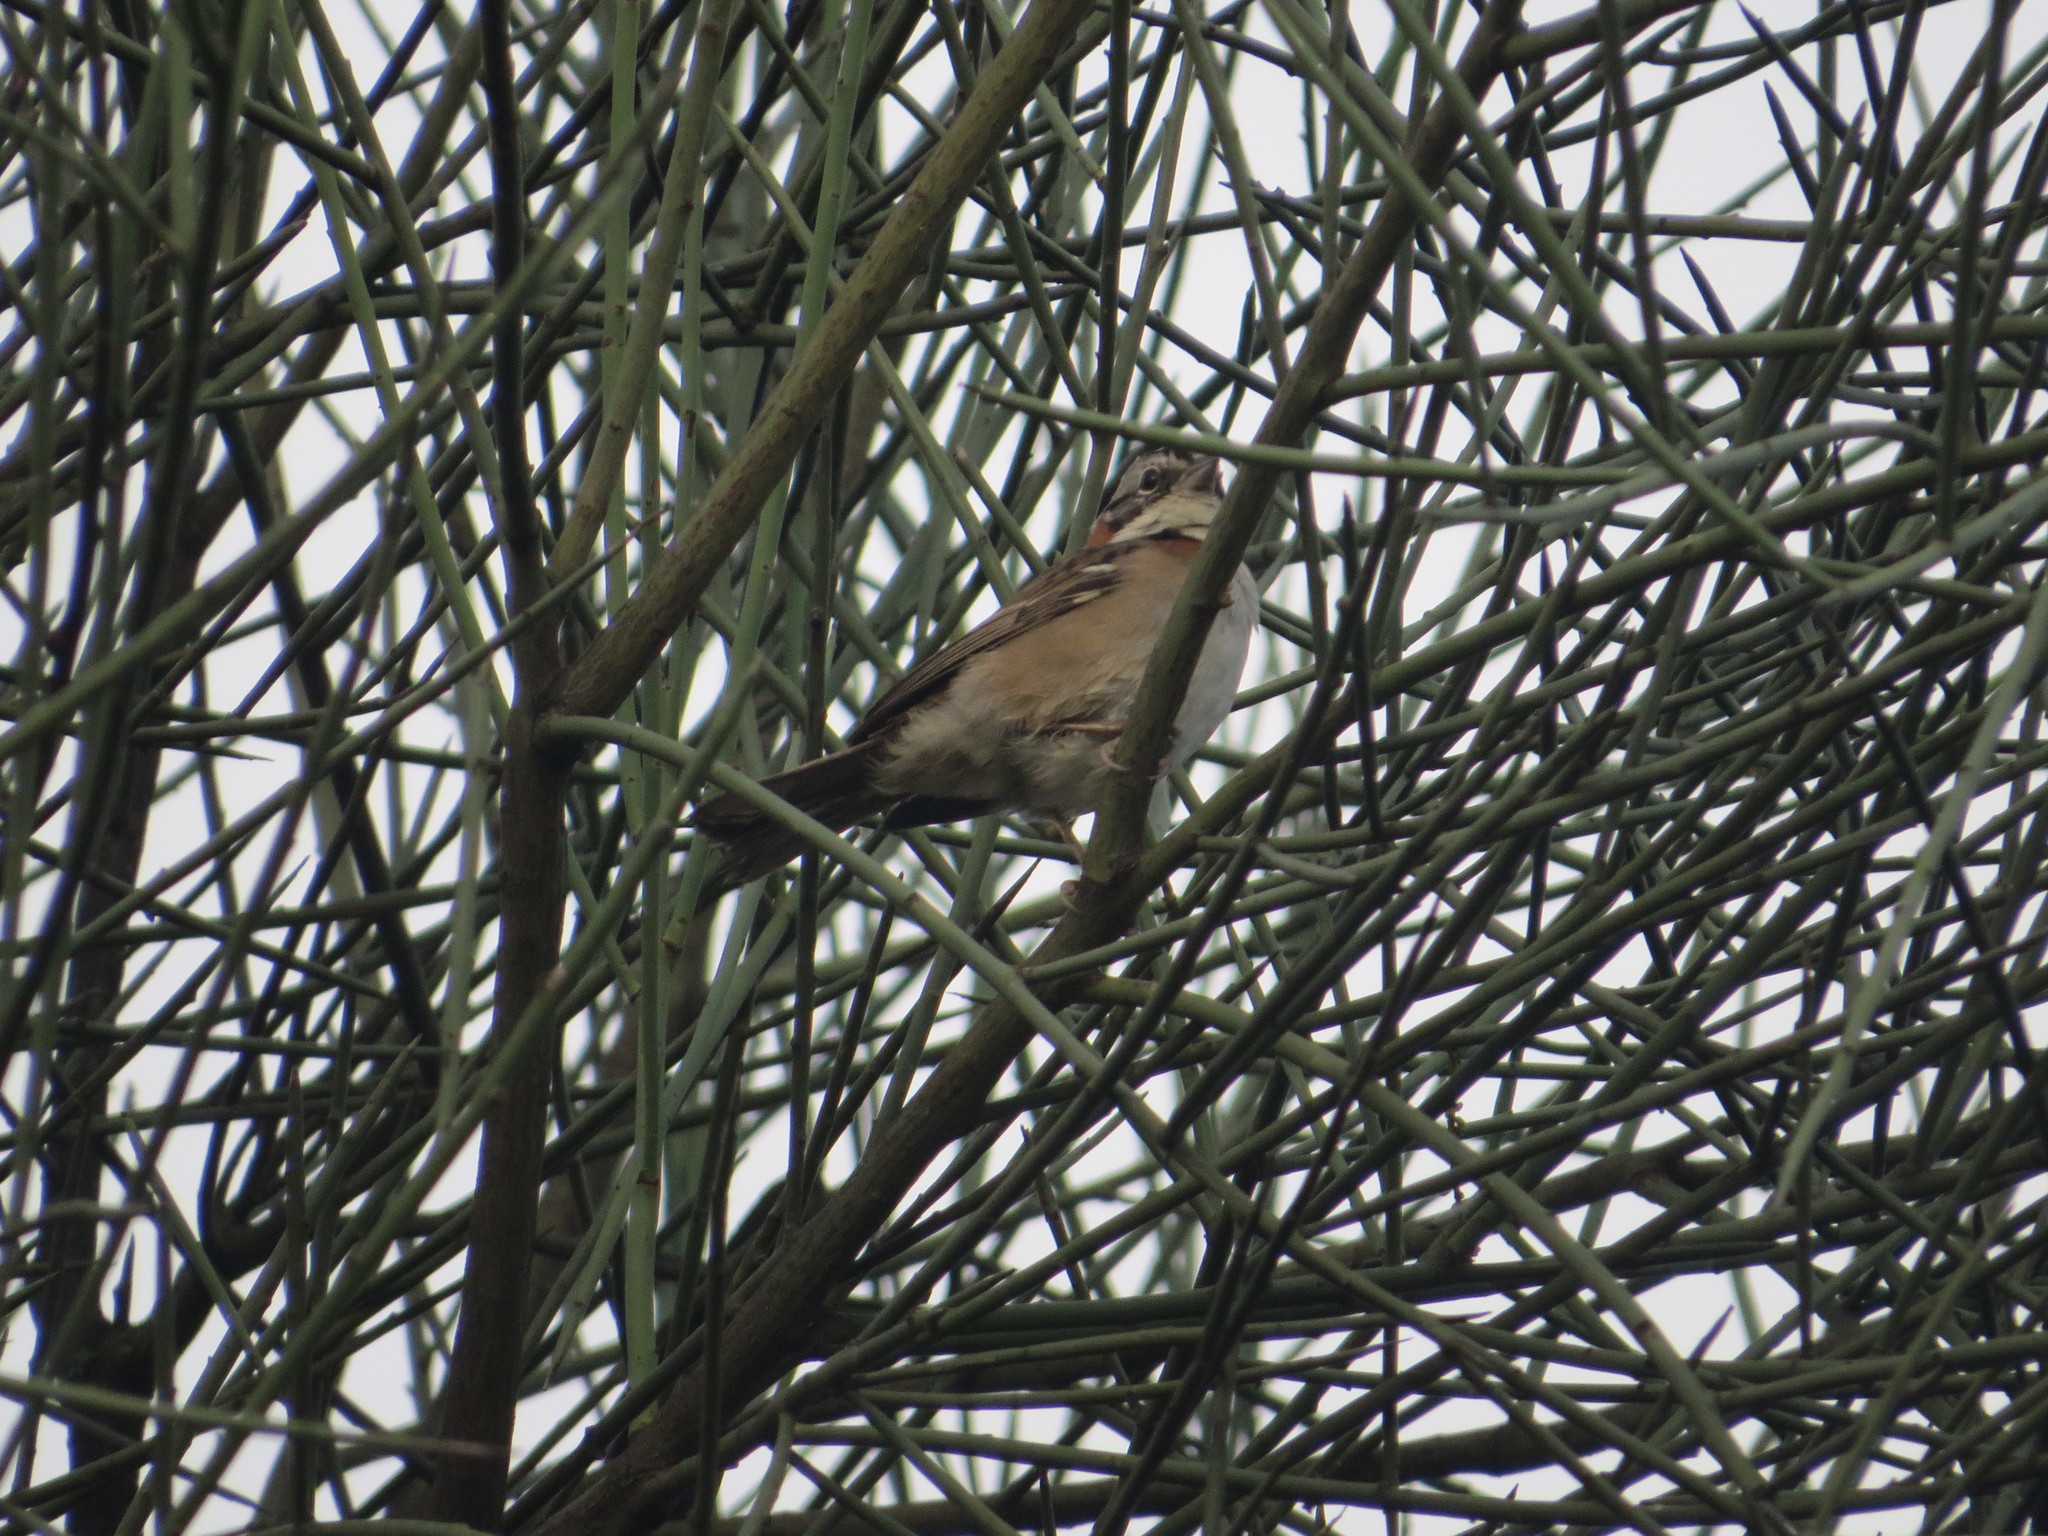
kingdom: Animalia
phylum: Chordata
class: Aves
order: Passeriformes
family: Passerellidae
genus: Zonotrichia
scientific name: Zonotrichia capensis
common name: Rufous-collared sparrow
